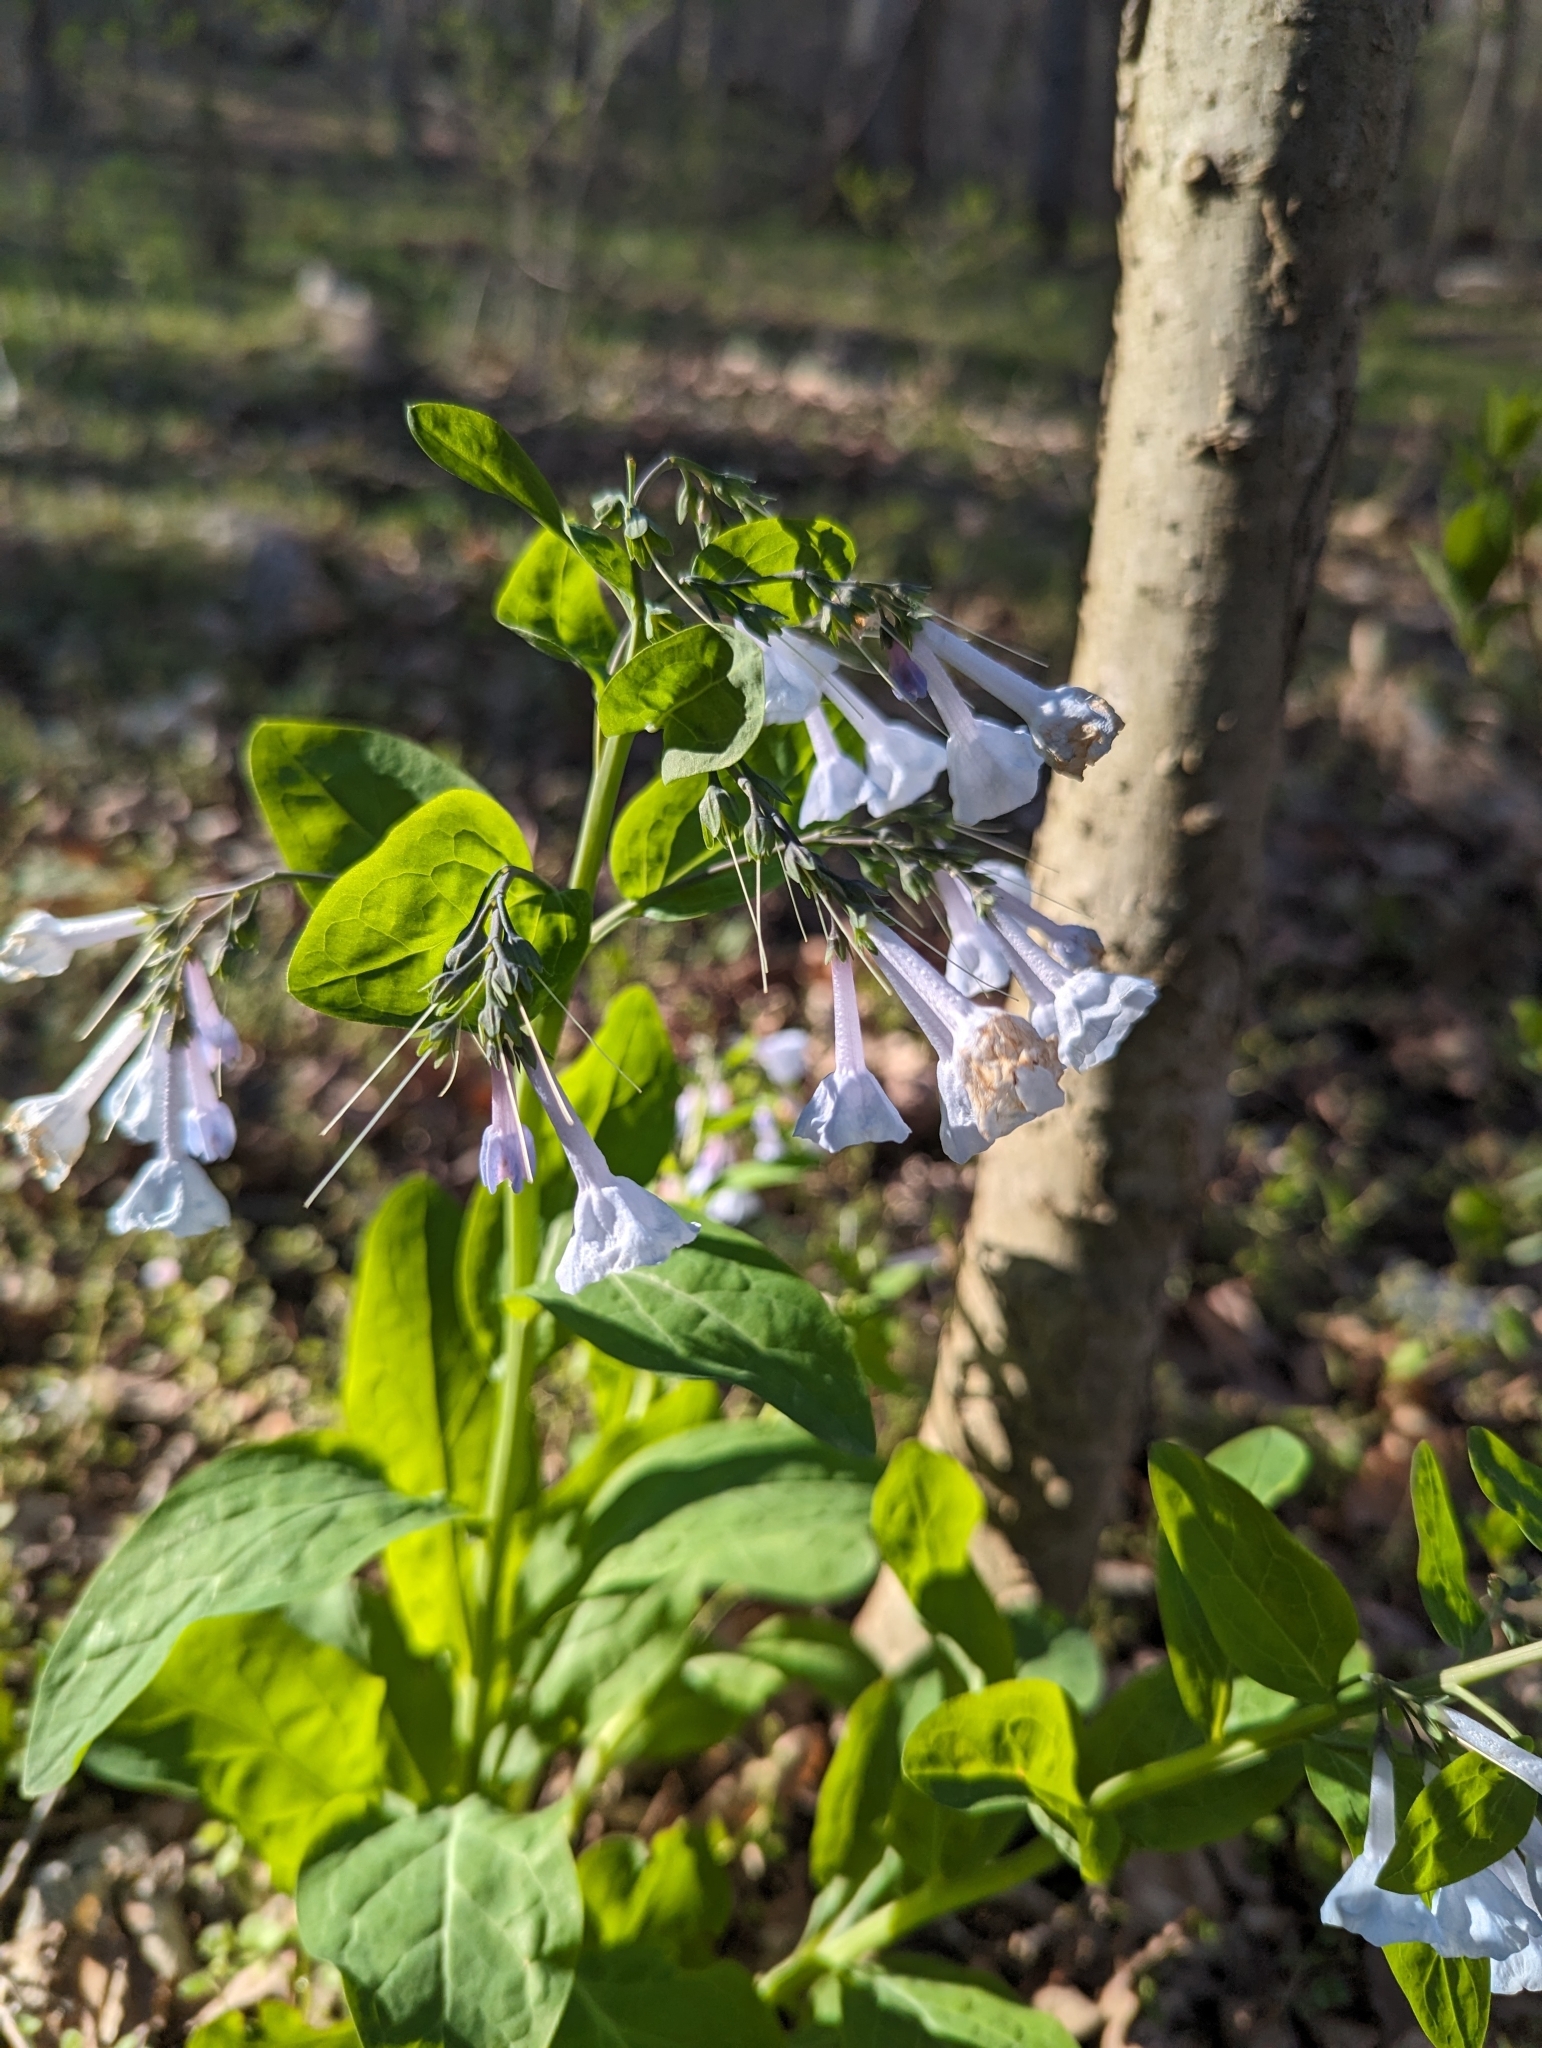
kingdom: Plantae
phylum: Tracheophyta
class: Magnoliopsida
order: Boraginales
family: Boraginaceae
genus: Mertensia
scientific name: Mertensia virginica
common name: Virginia bluebells
